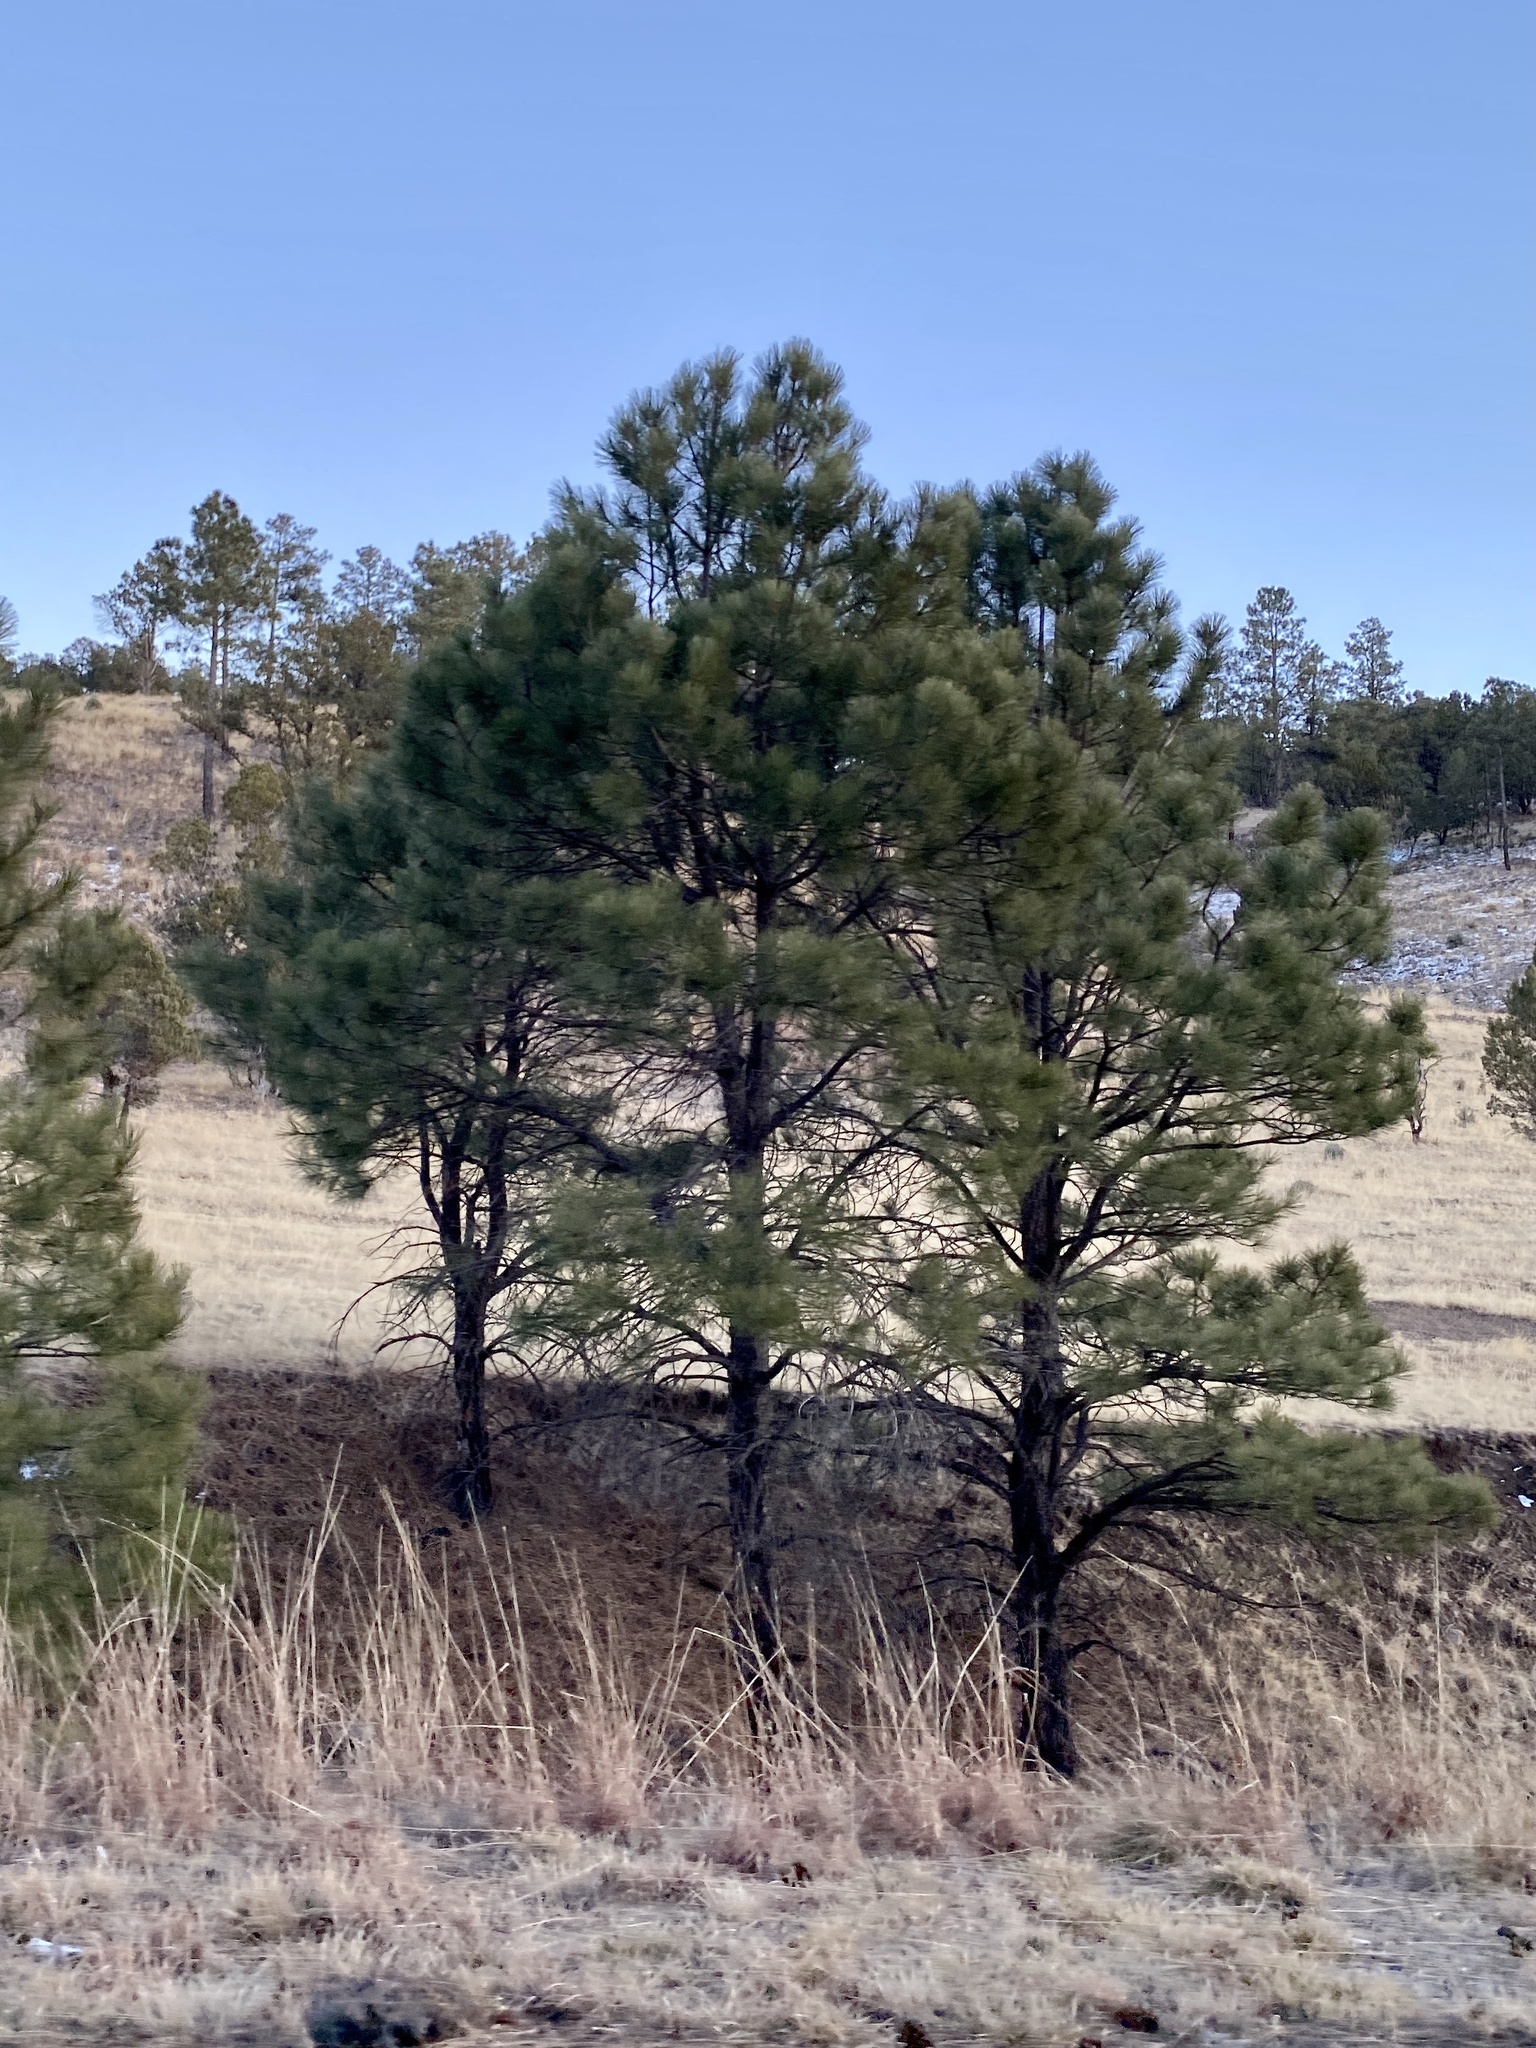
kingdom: Plantae
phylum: Tracheophyta
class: Pinopsida
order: Pinales
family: Pinaceae
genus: Pinus
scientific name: Pinus ponderosa
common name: Western yellow-pine
